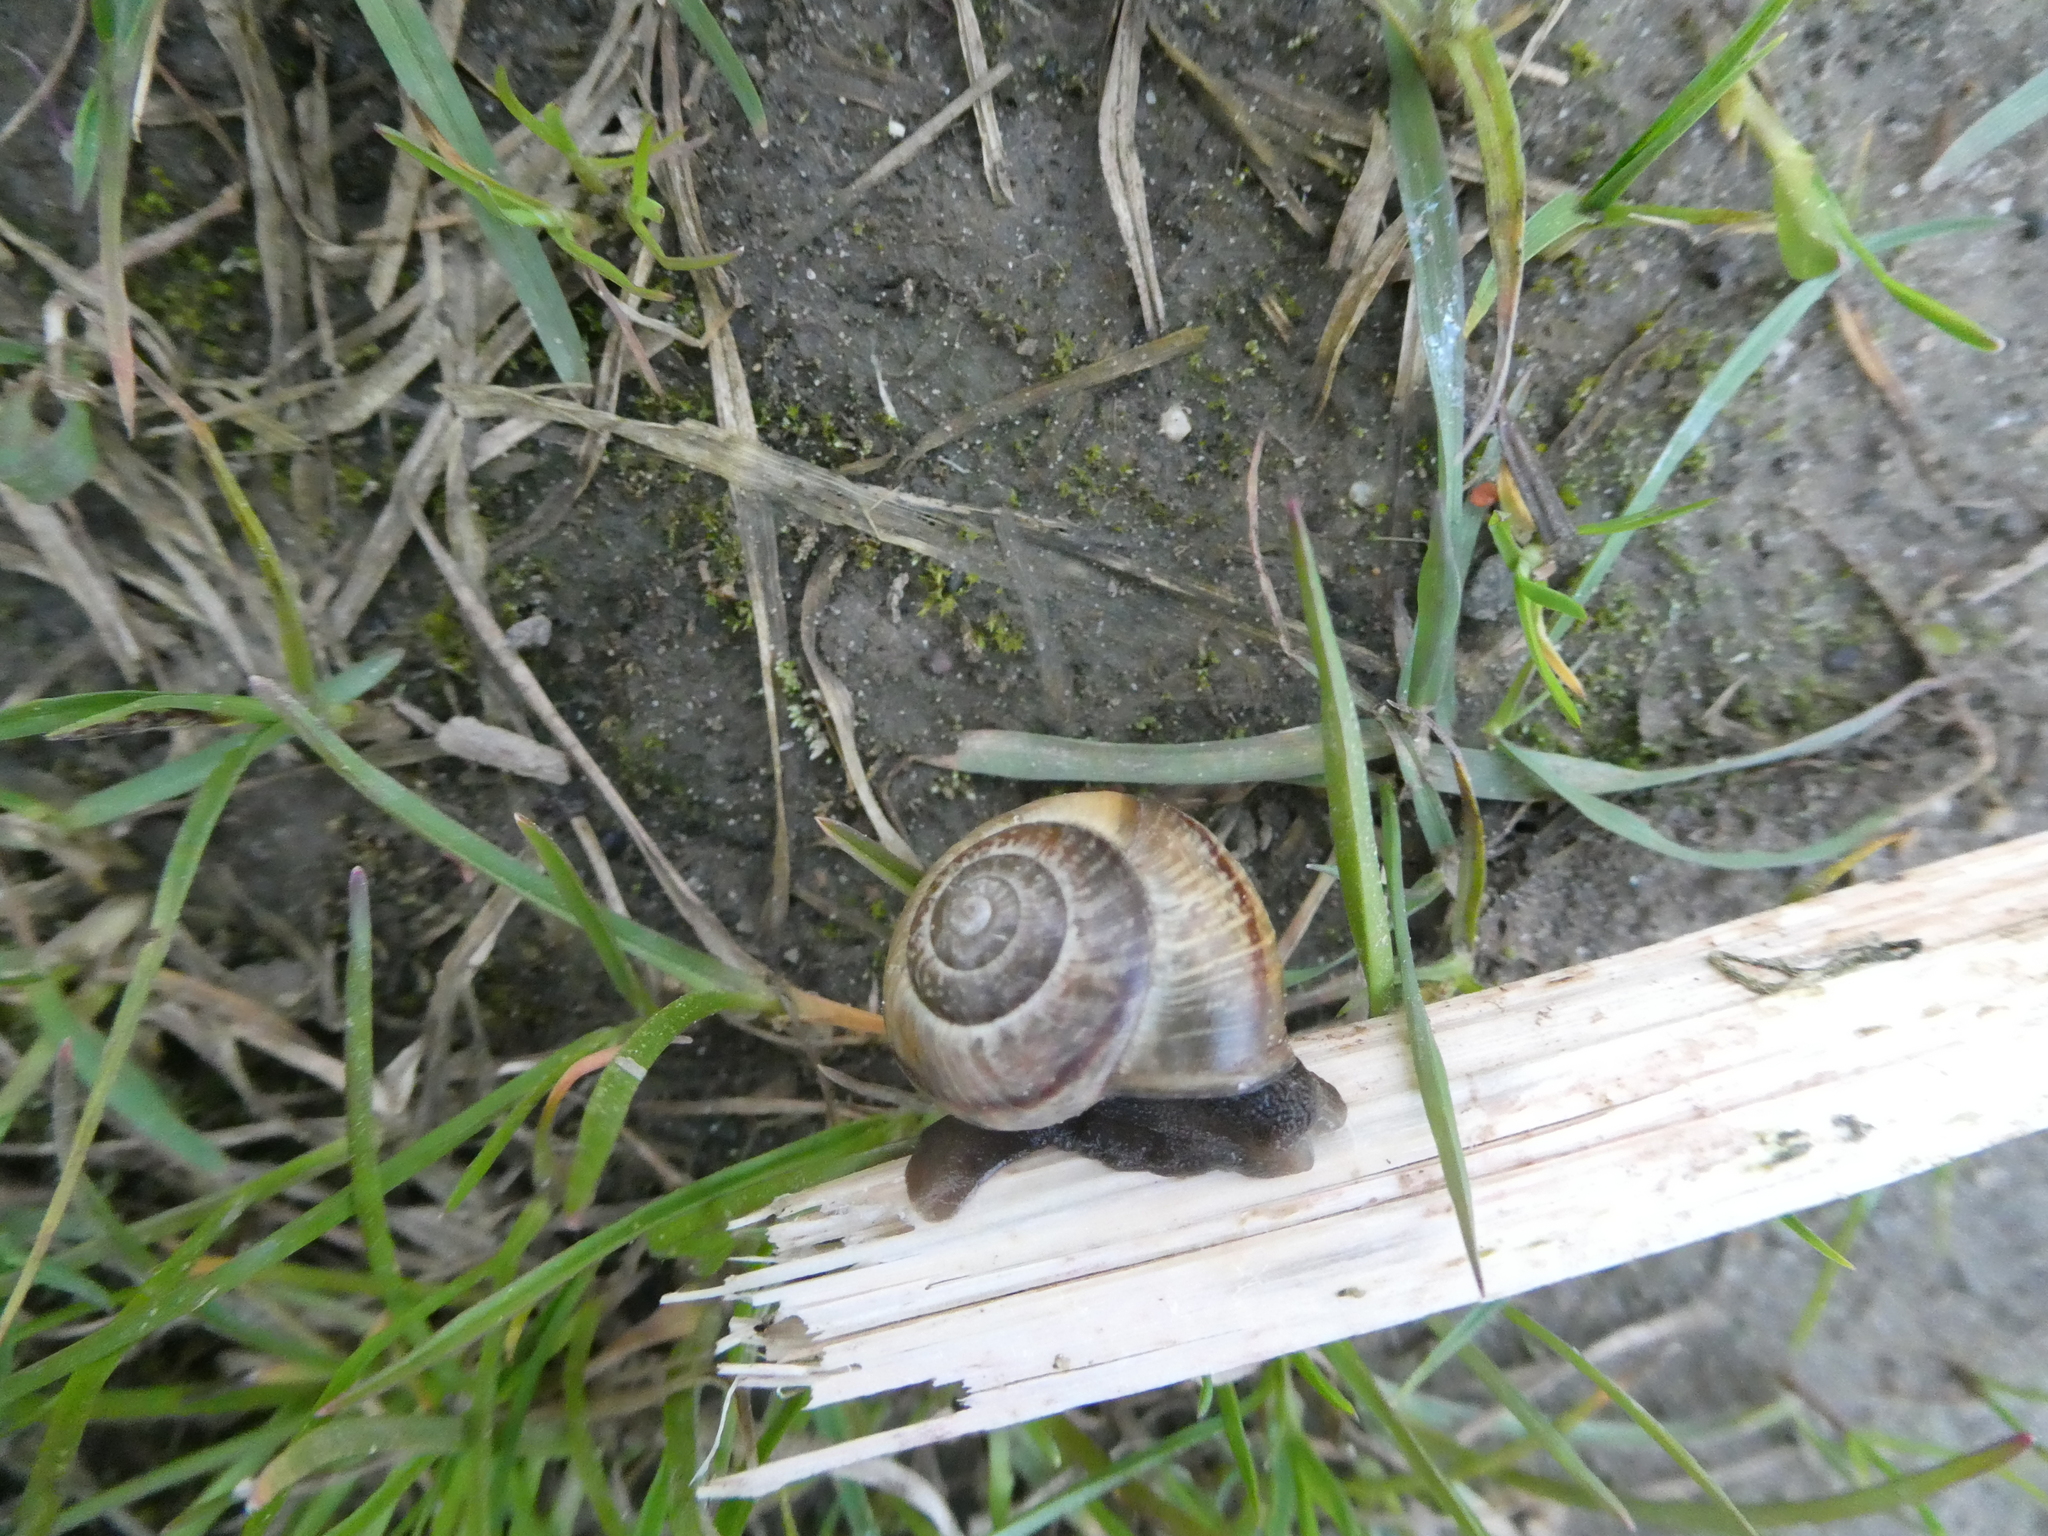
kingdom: Animalia
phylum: Mollusca
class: Gastropoda
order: Stylommatophora
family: Helicidae
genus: Arianta
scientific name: Arianta arbustorum
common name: Copse snail
